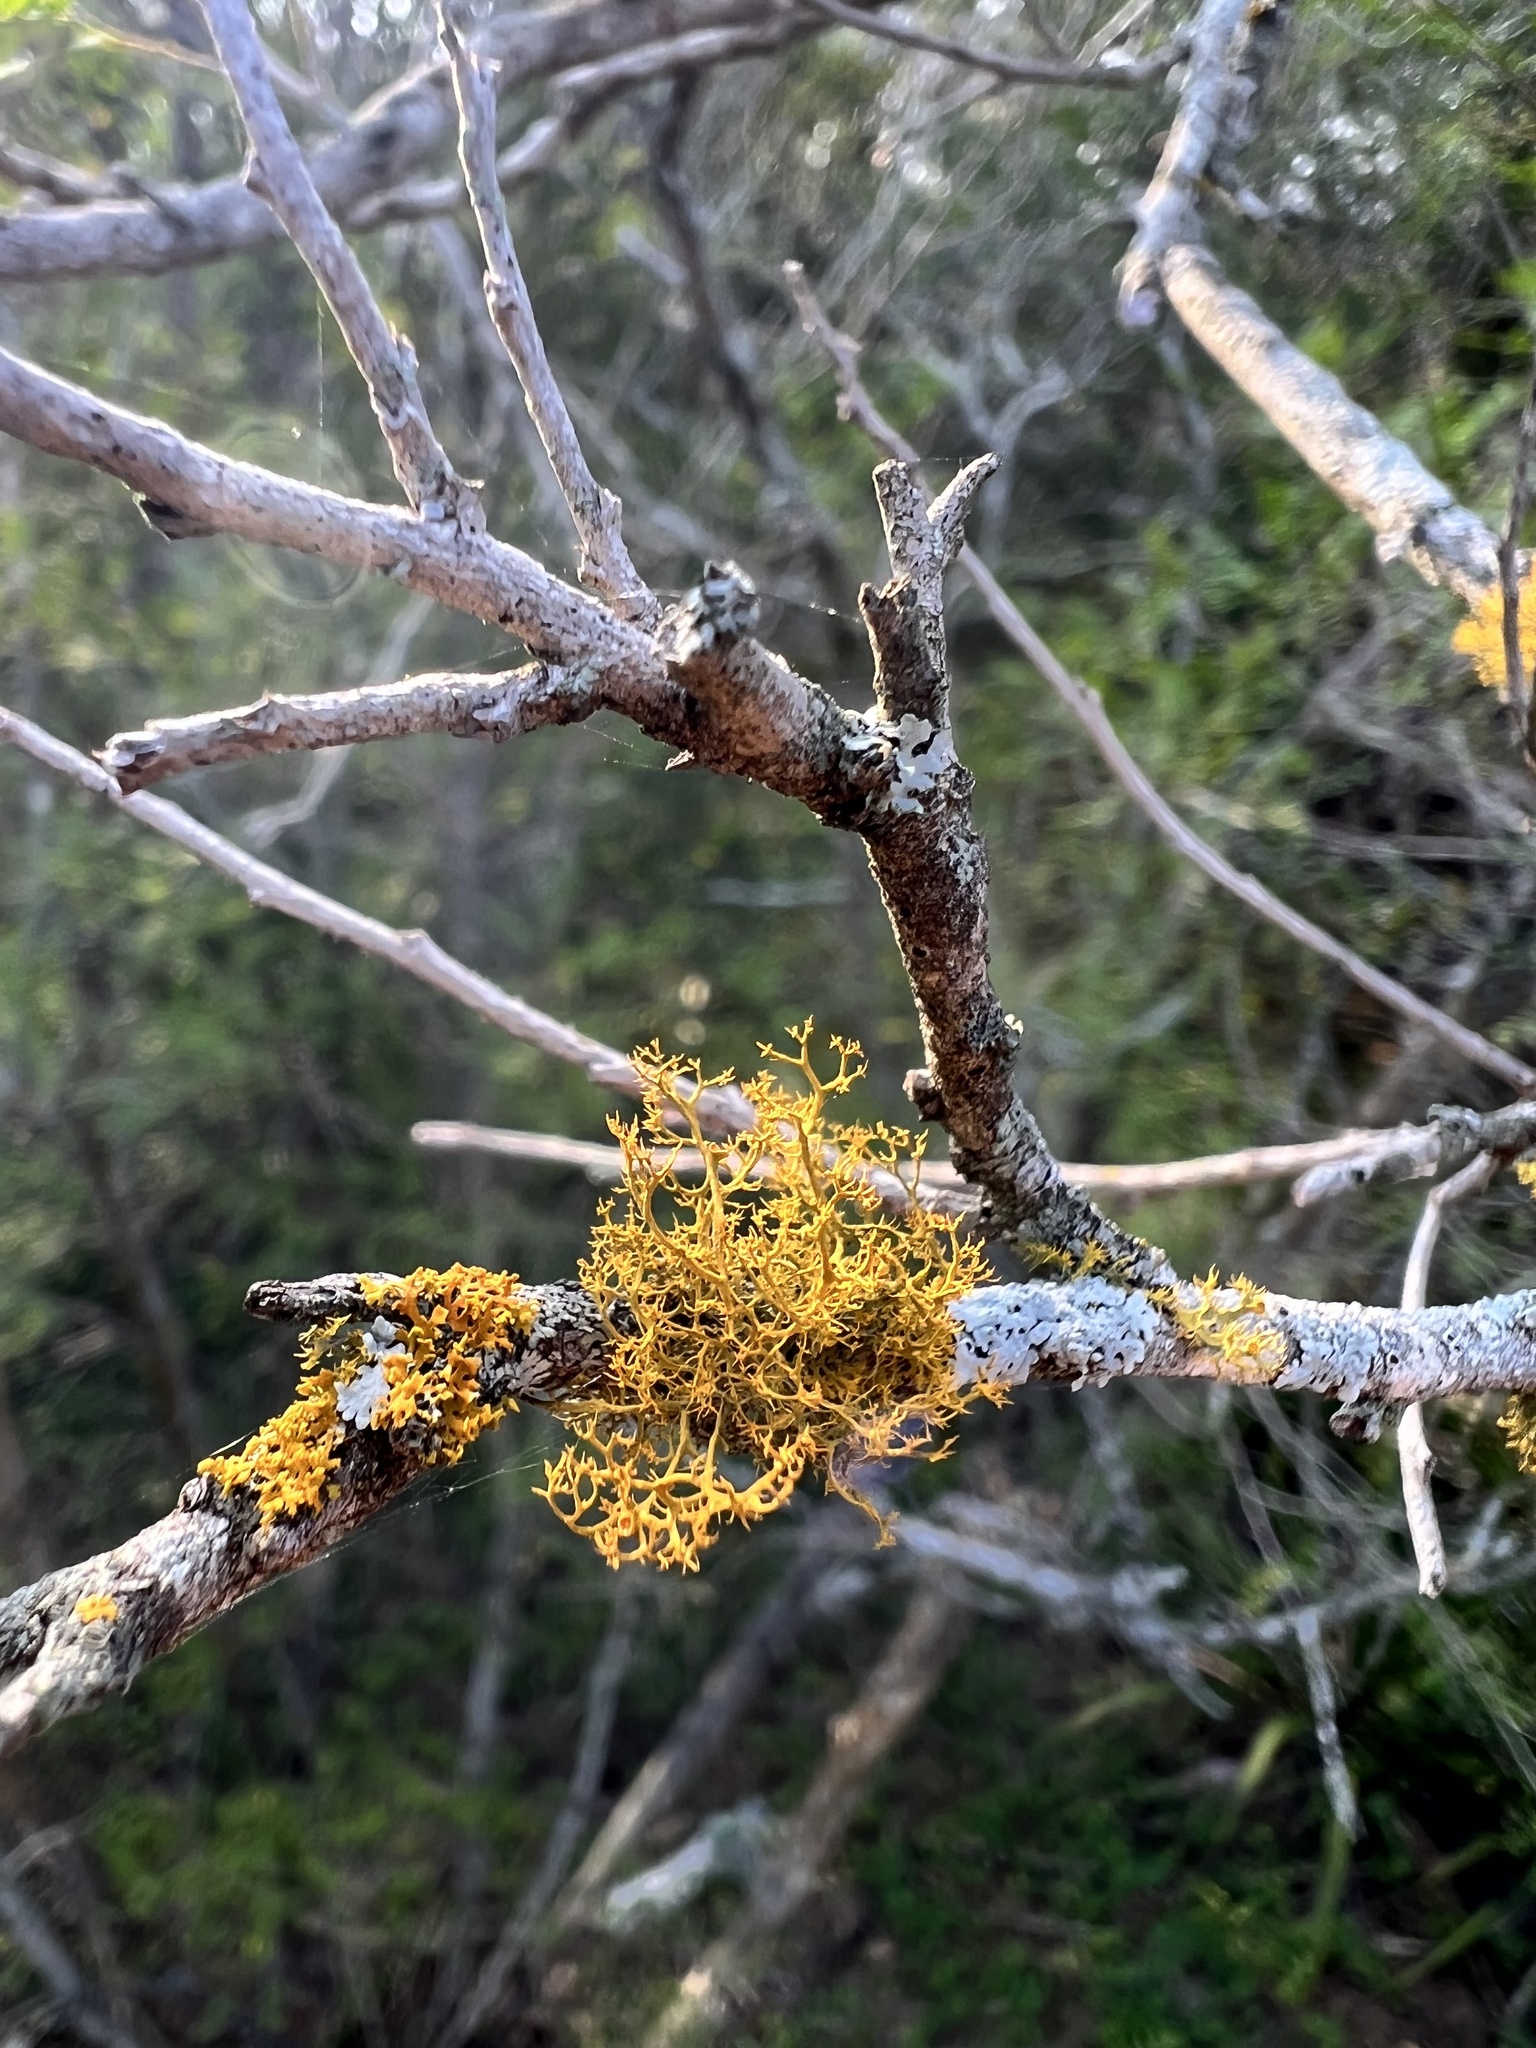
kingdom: Fungi
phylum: Ascomycota
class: Lecanoromycetes
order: Teloschistales
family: Teloschistaceae
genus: Teloschistes
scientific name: Teloschistes exilis
